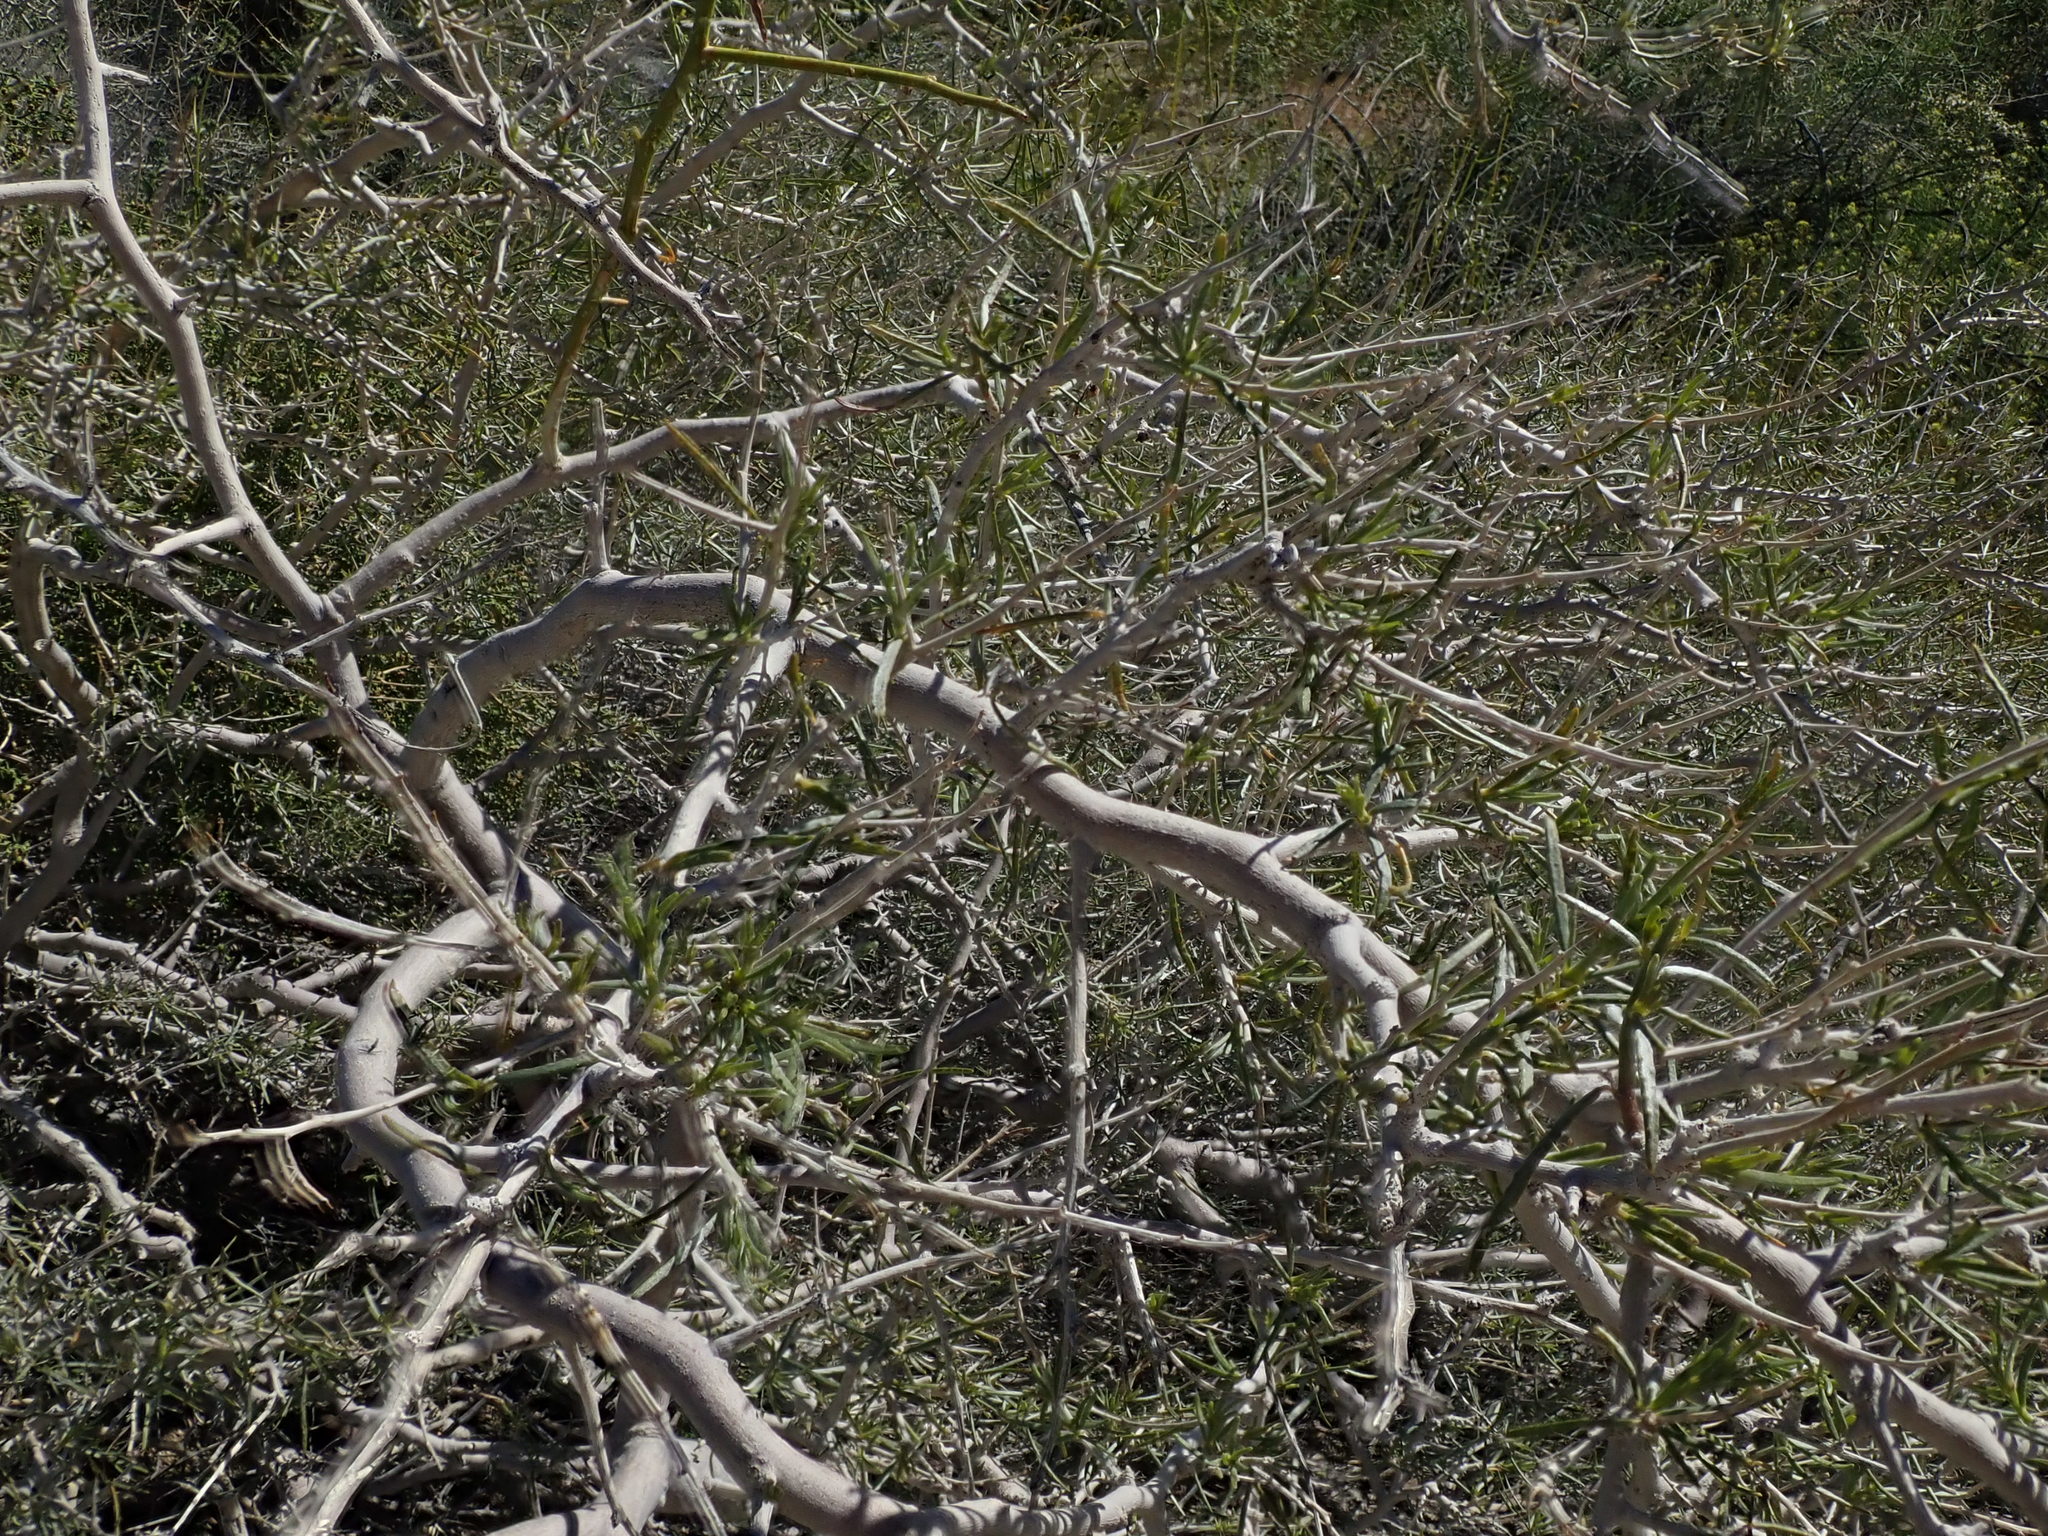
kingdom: Plantae
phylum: Tracheophyta
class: Magnoliopsida
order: Fabales
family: Fabaceae
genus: Psorothamnus
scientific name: Psorothamnus schottii
